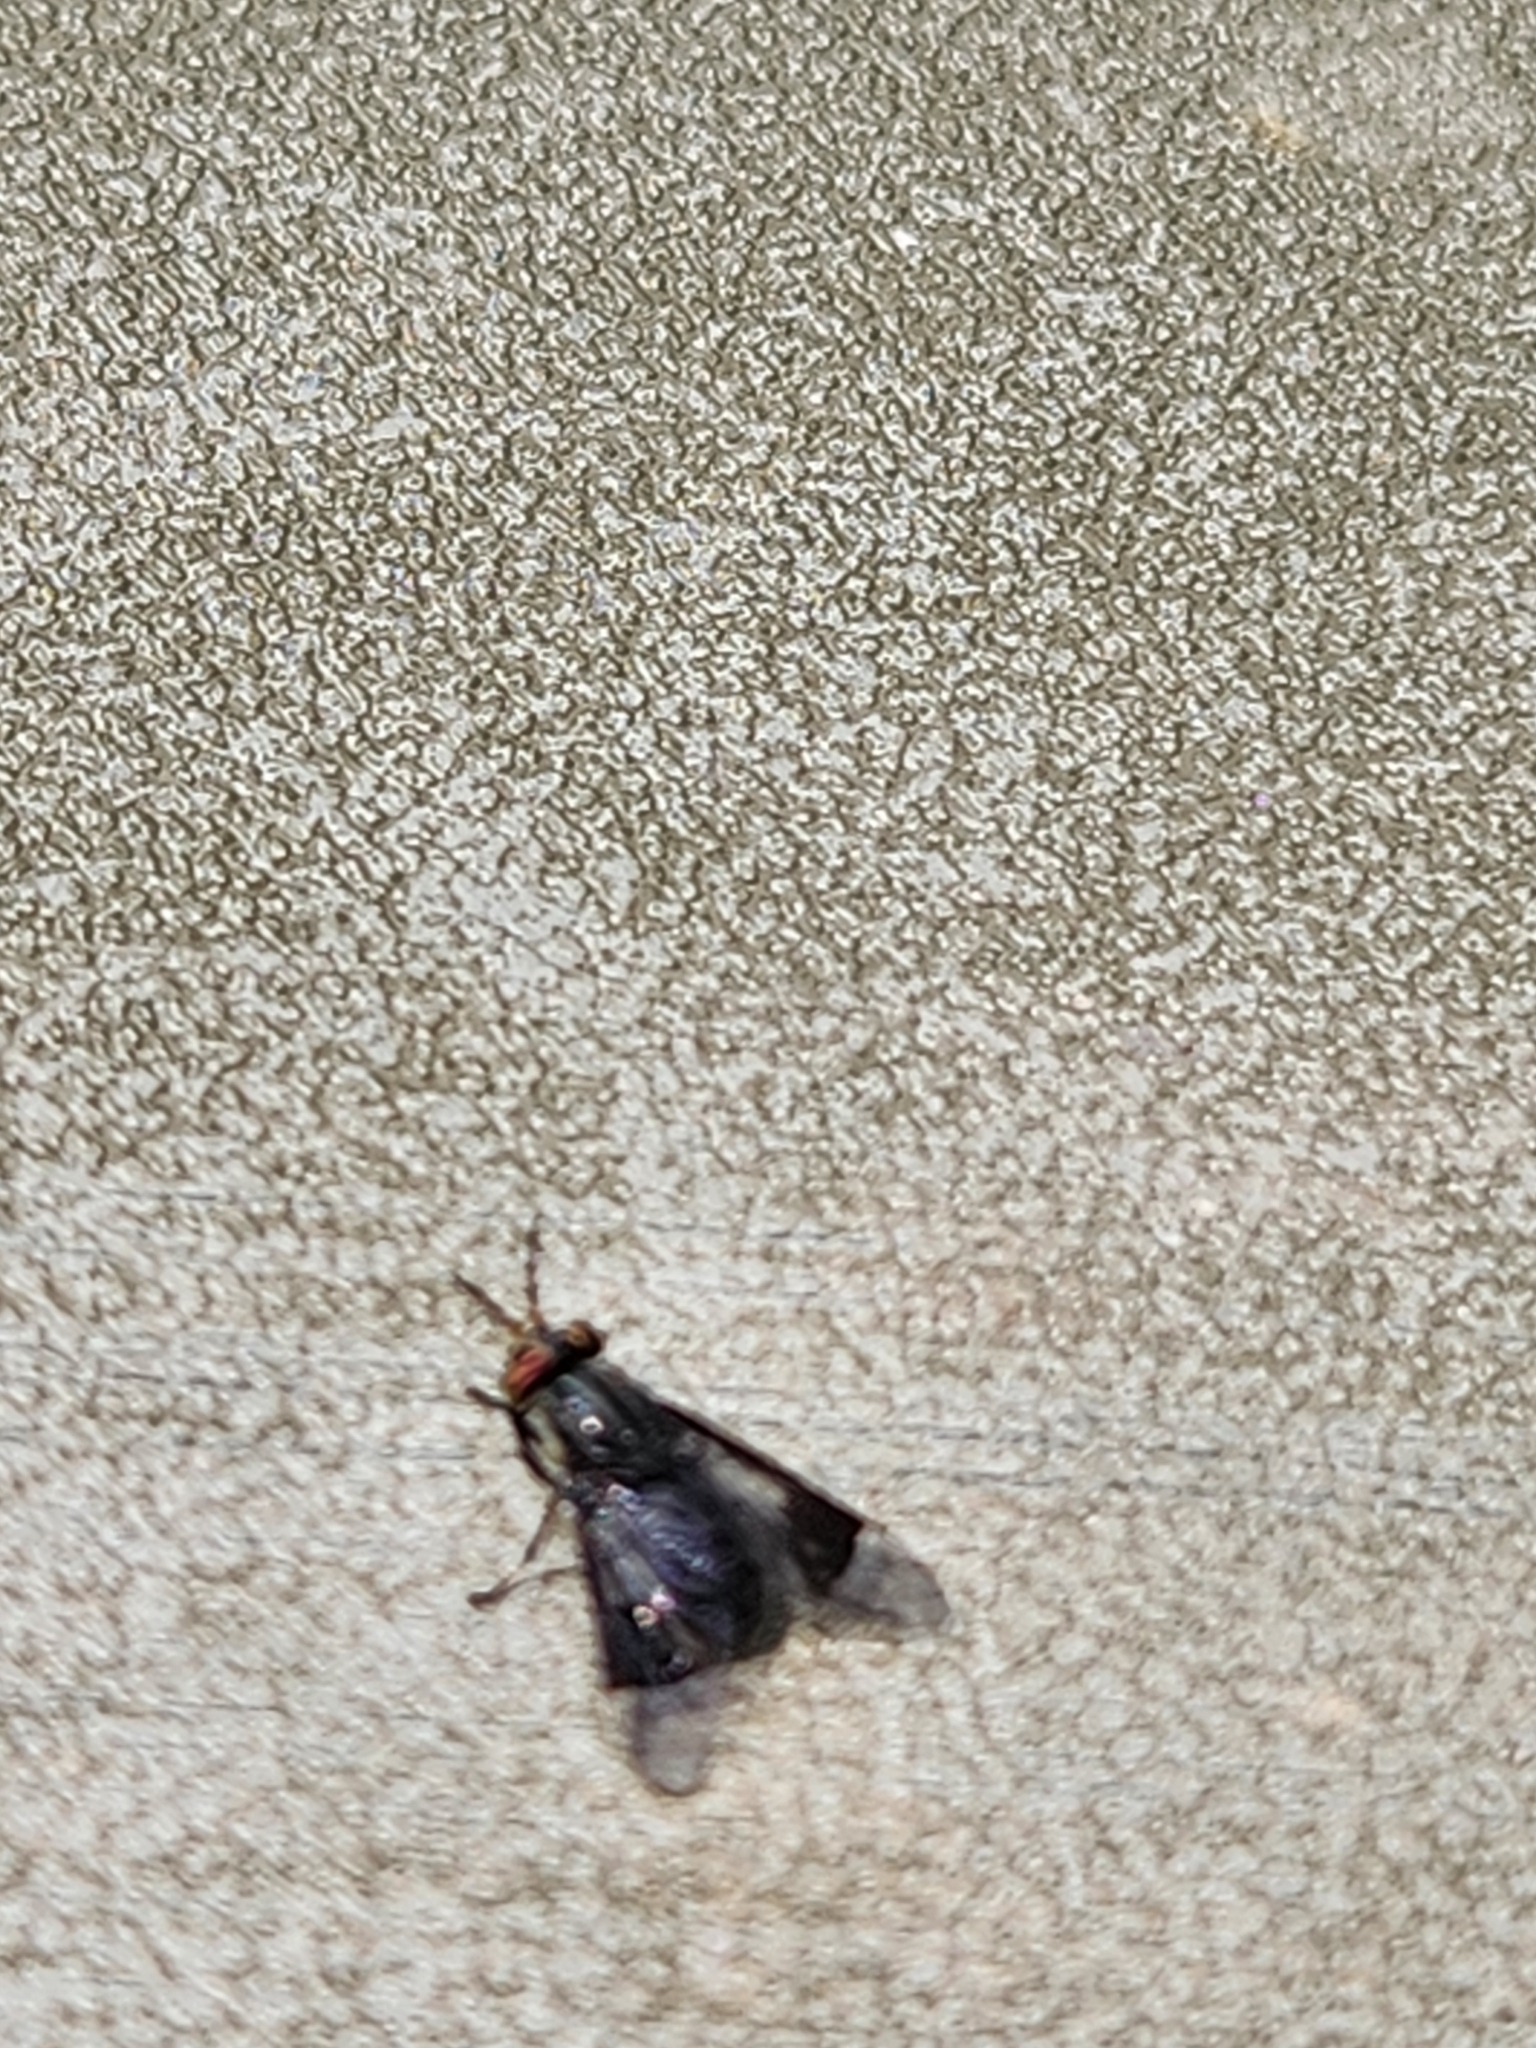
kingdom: Animalia
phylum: Arthropoda
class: Insecta
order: Diptera
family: Tabanidae
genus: Chrysops
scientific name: Chrysops niger
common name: Black deer fly
